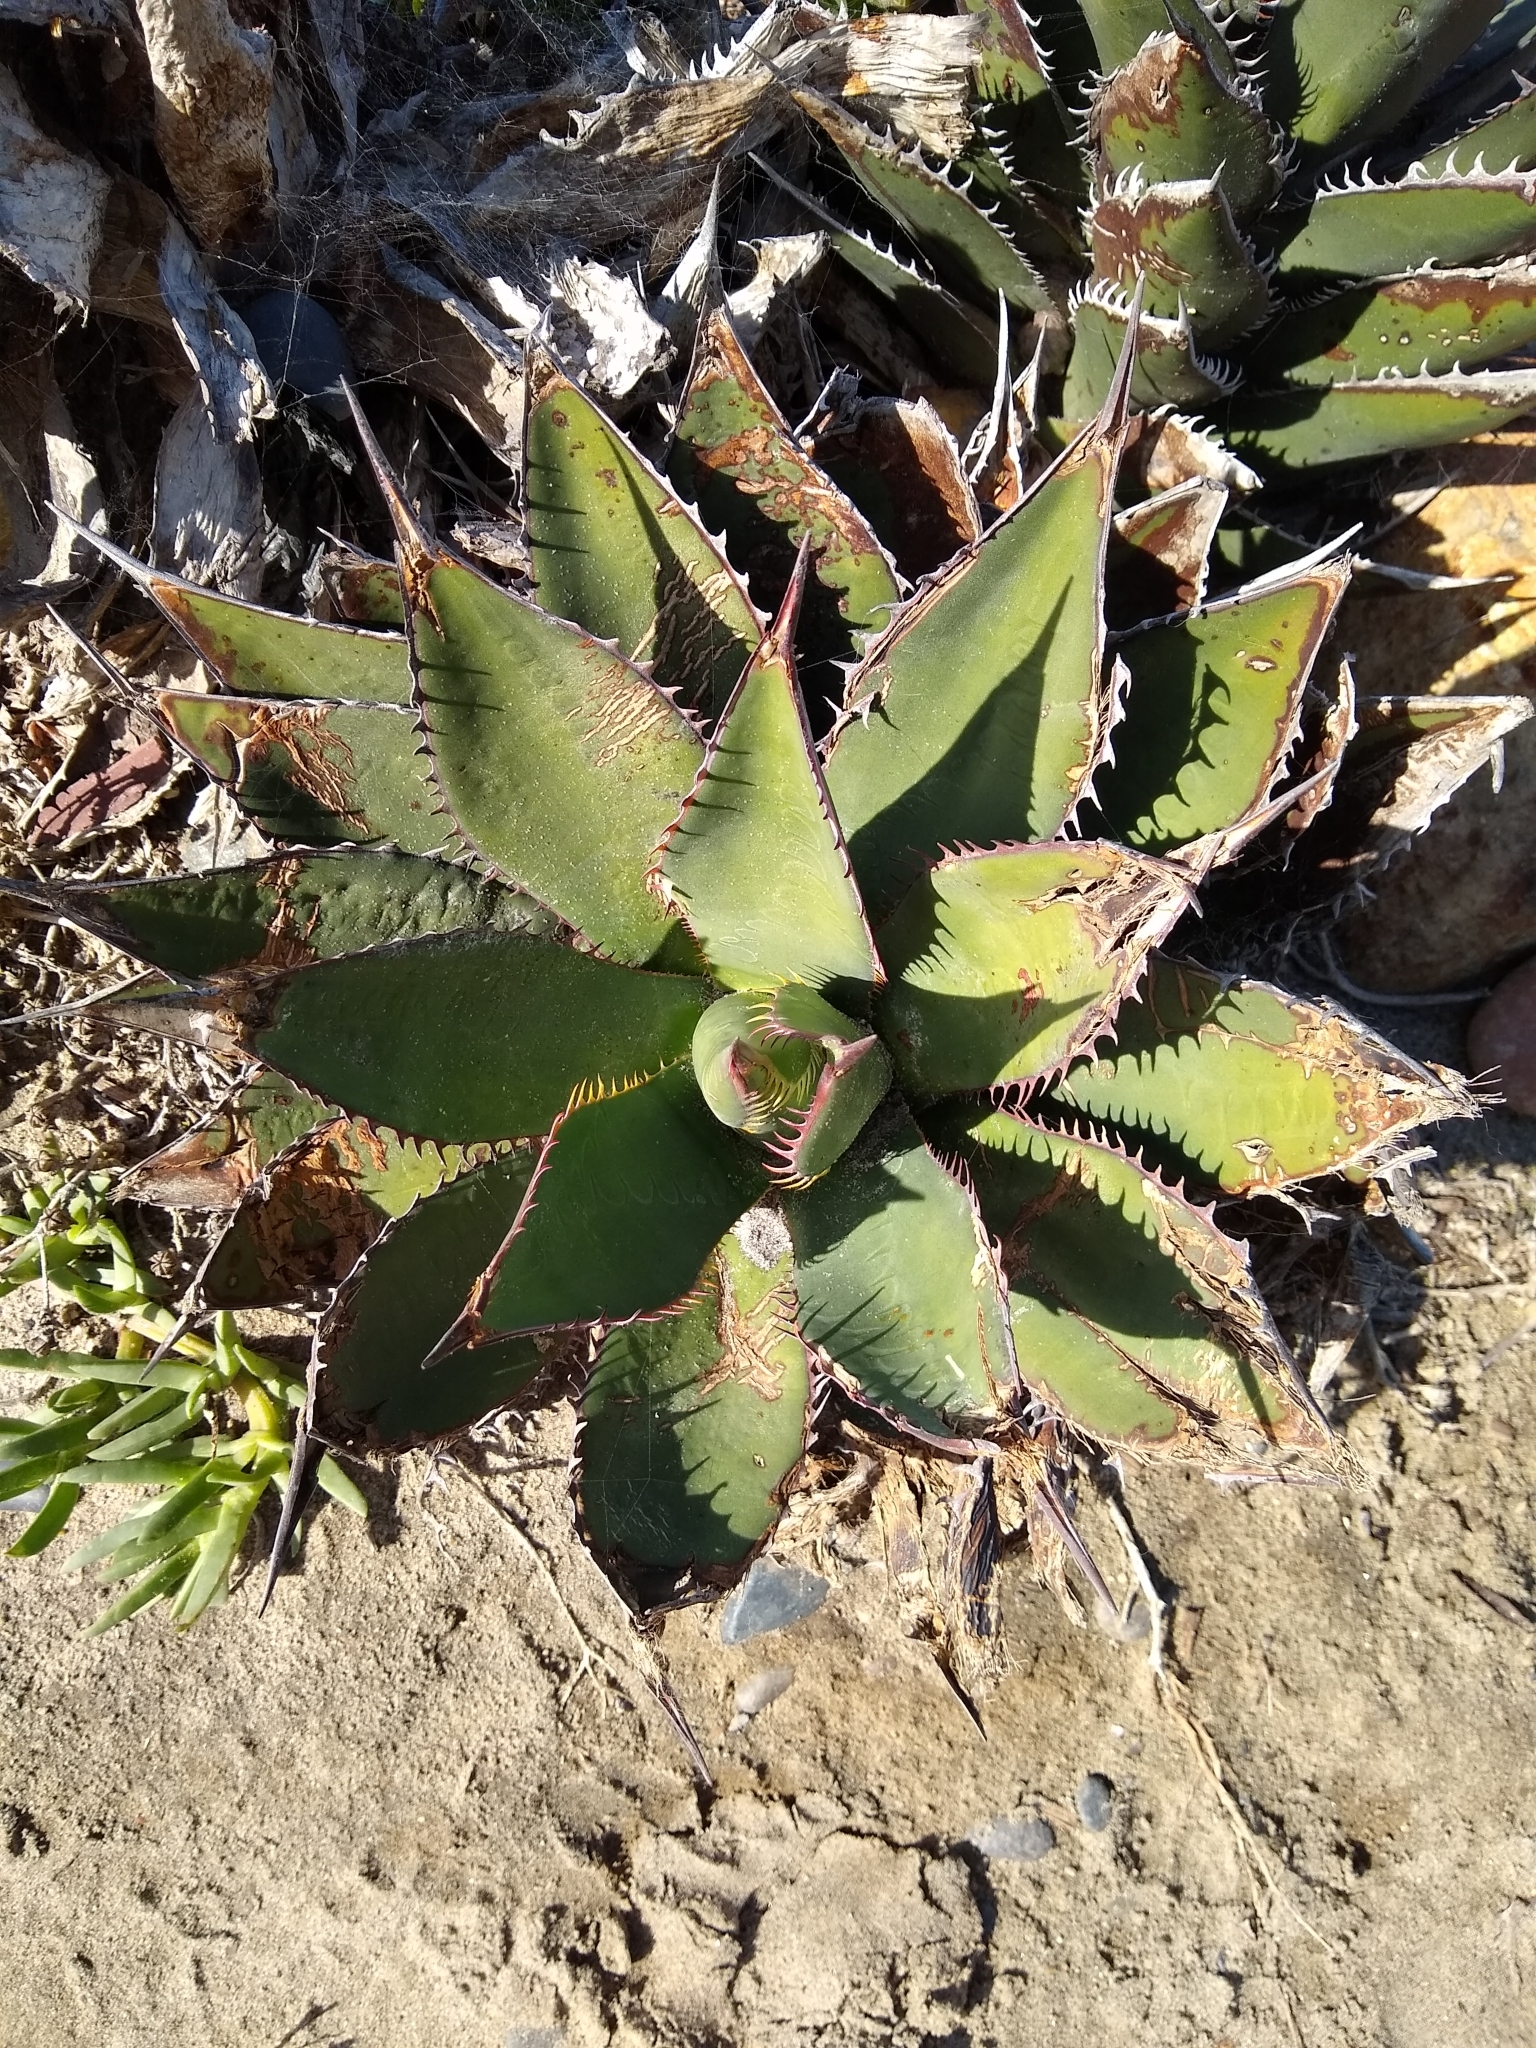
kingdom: Plantae
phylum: Tracheophyta
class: Liliopsida
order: Asparagales
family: Asparagaceae
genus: Agave
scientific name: Agave shawii
